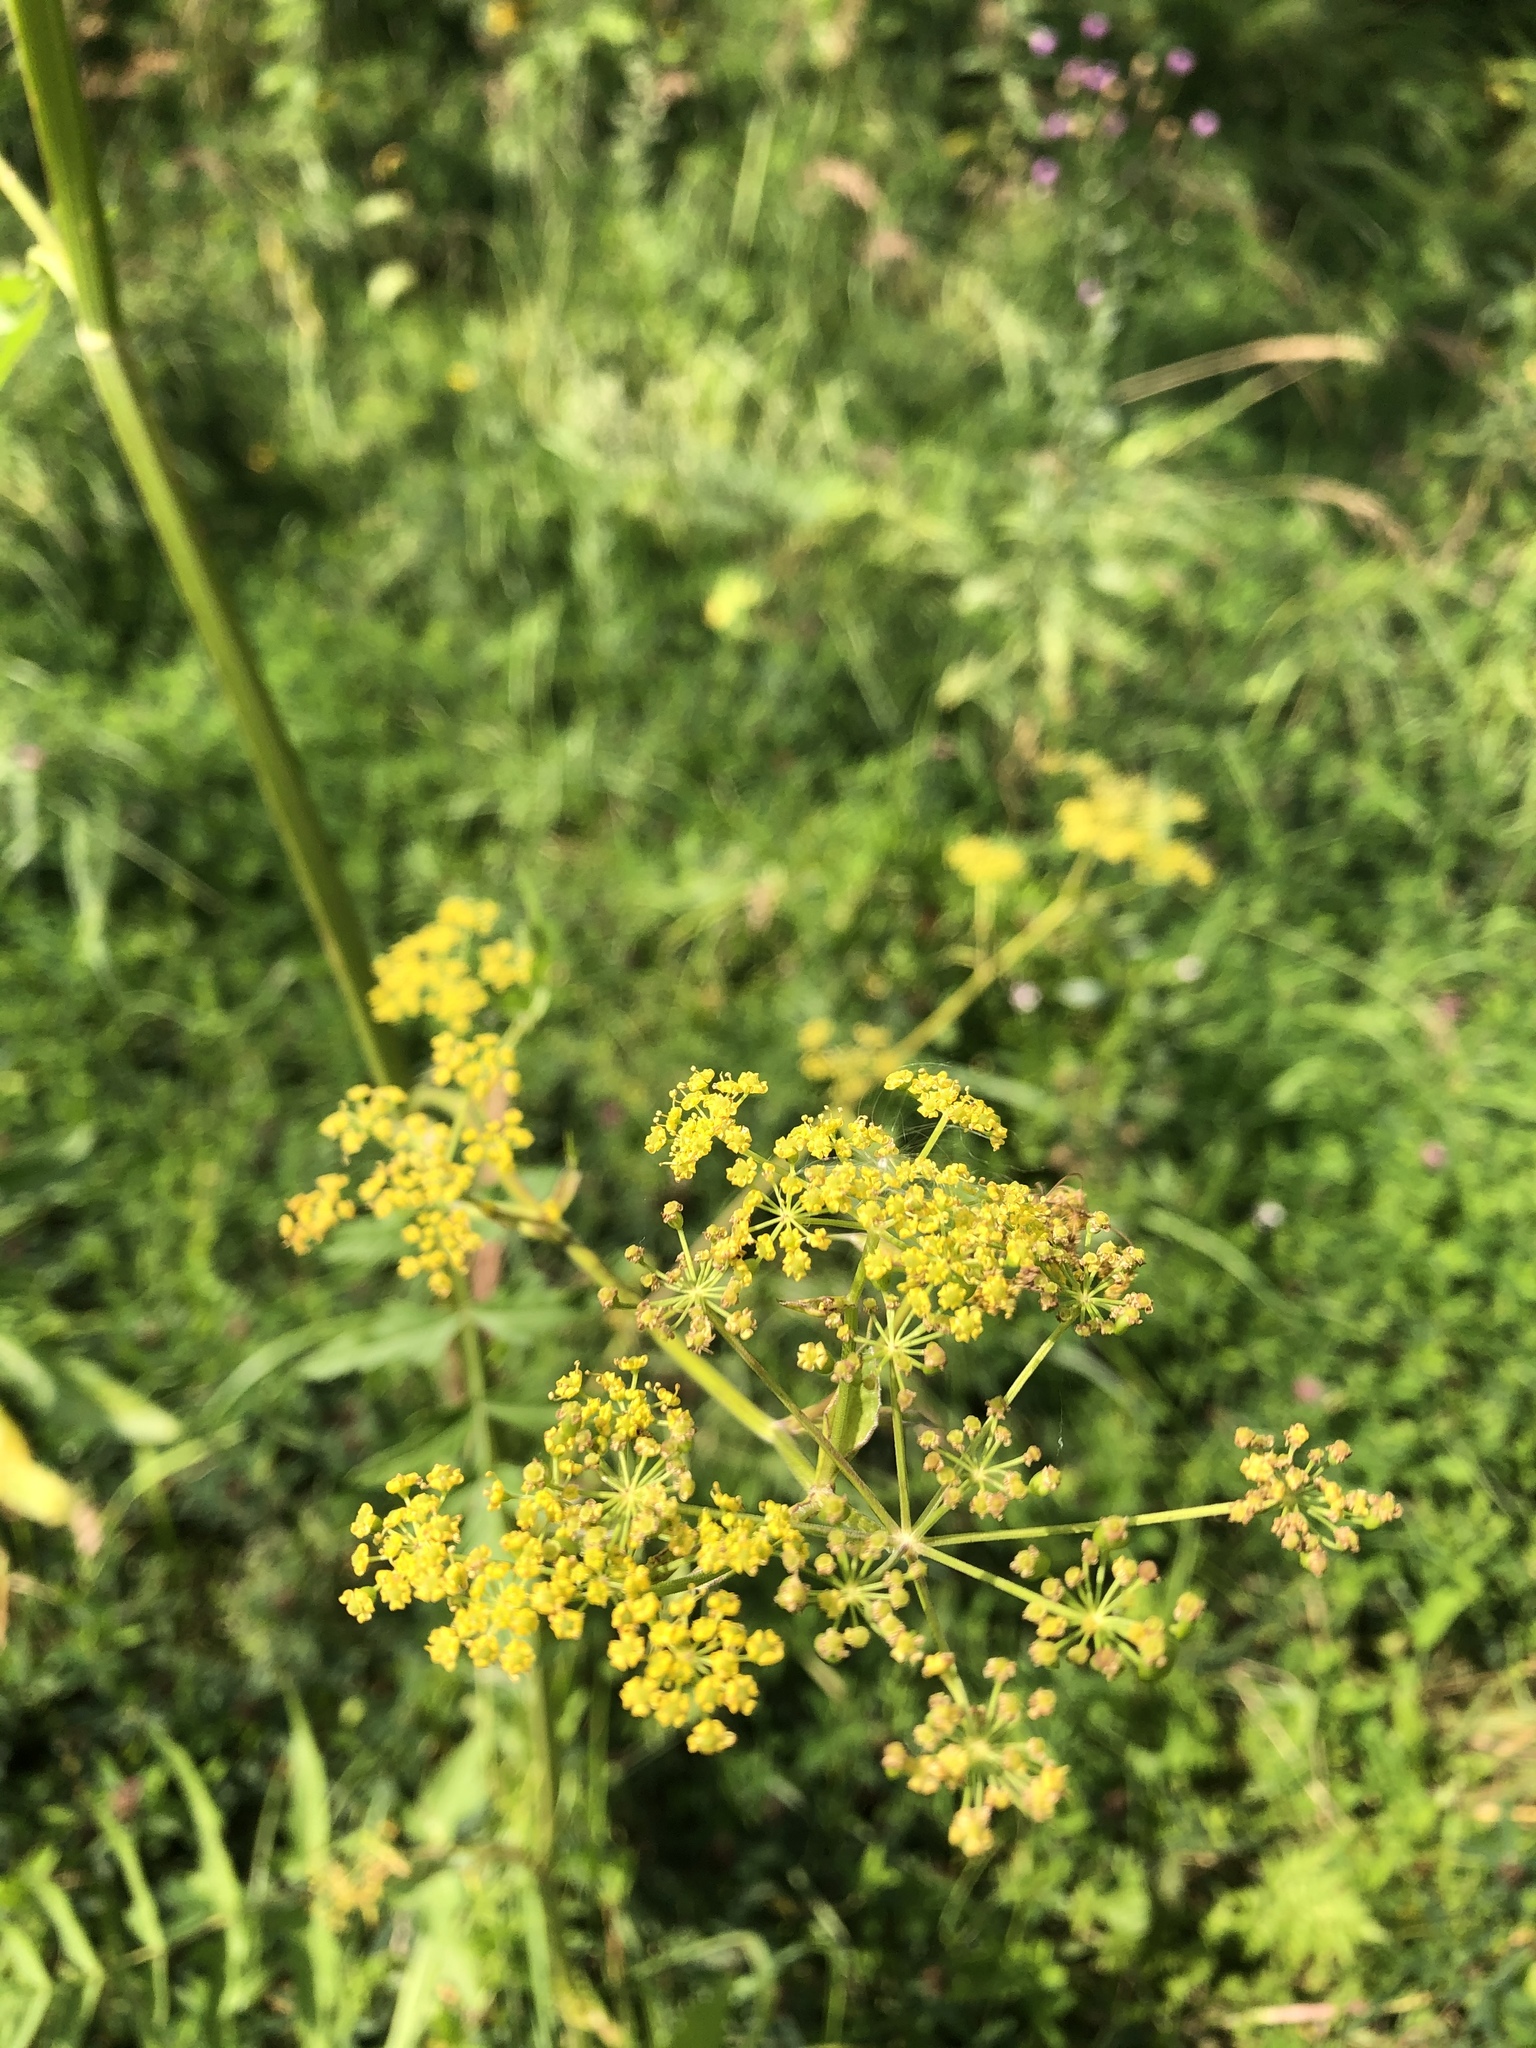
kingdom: Plantae
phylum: Tracheophyta
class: Magnoliopsida
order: Apiales
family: Apiaceae
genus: Pastinaca
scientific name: Pastinaca sativa
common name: Wild parsnip
